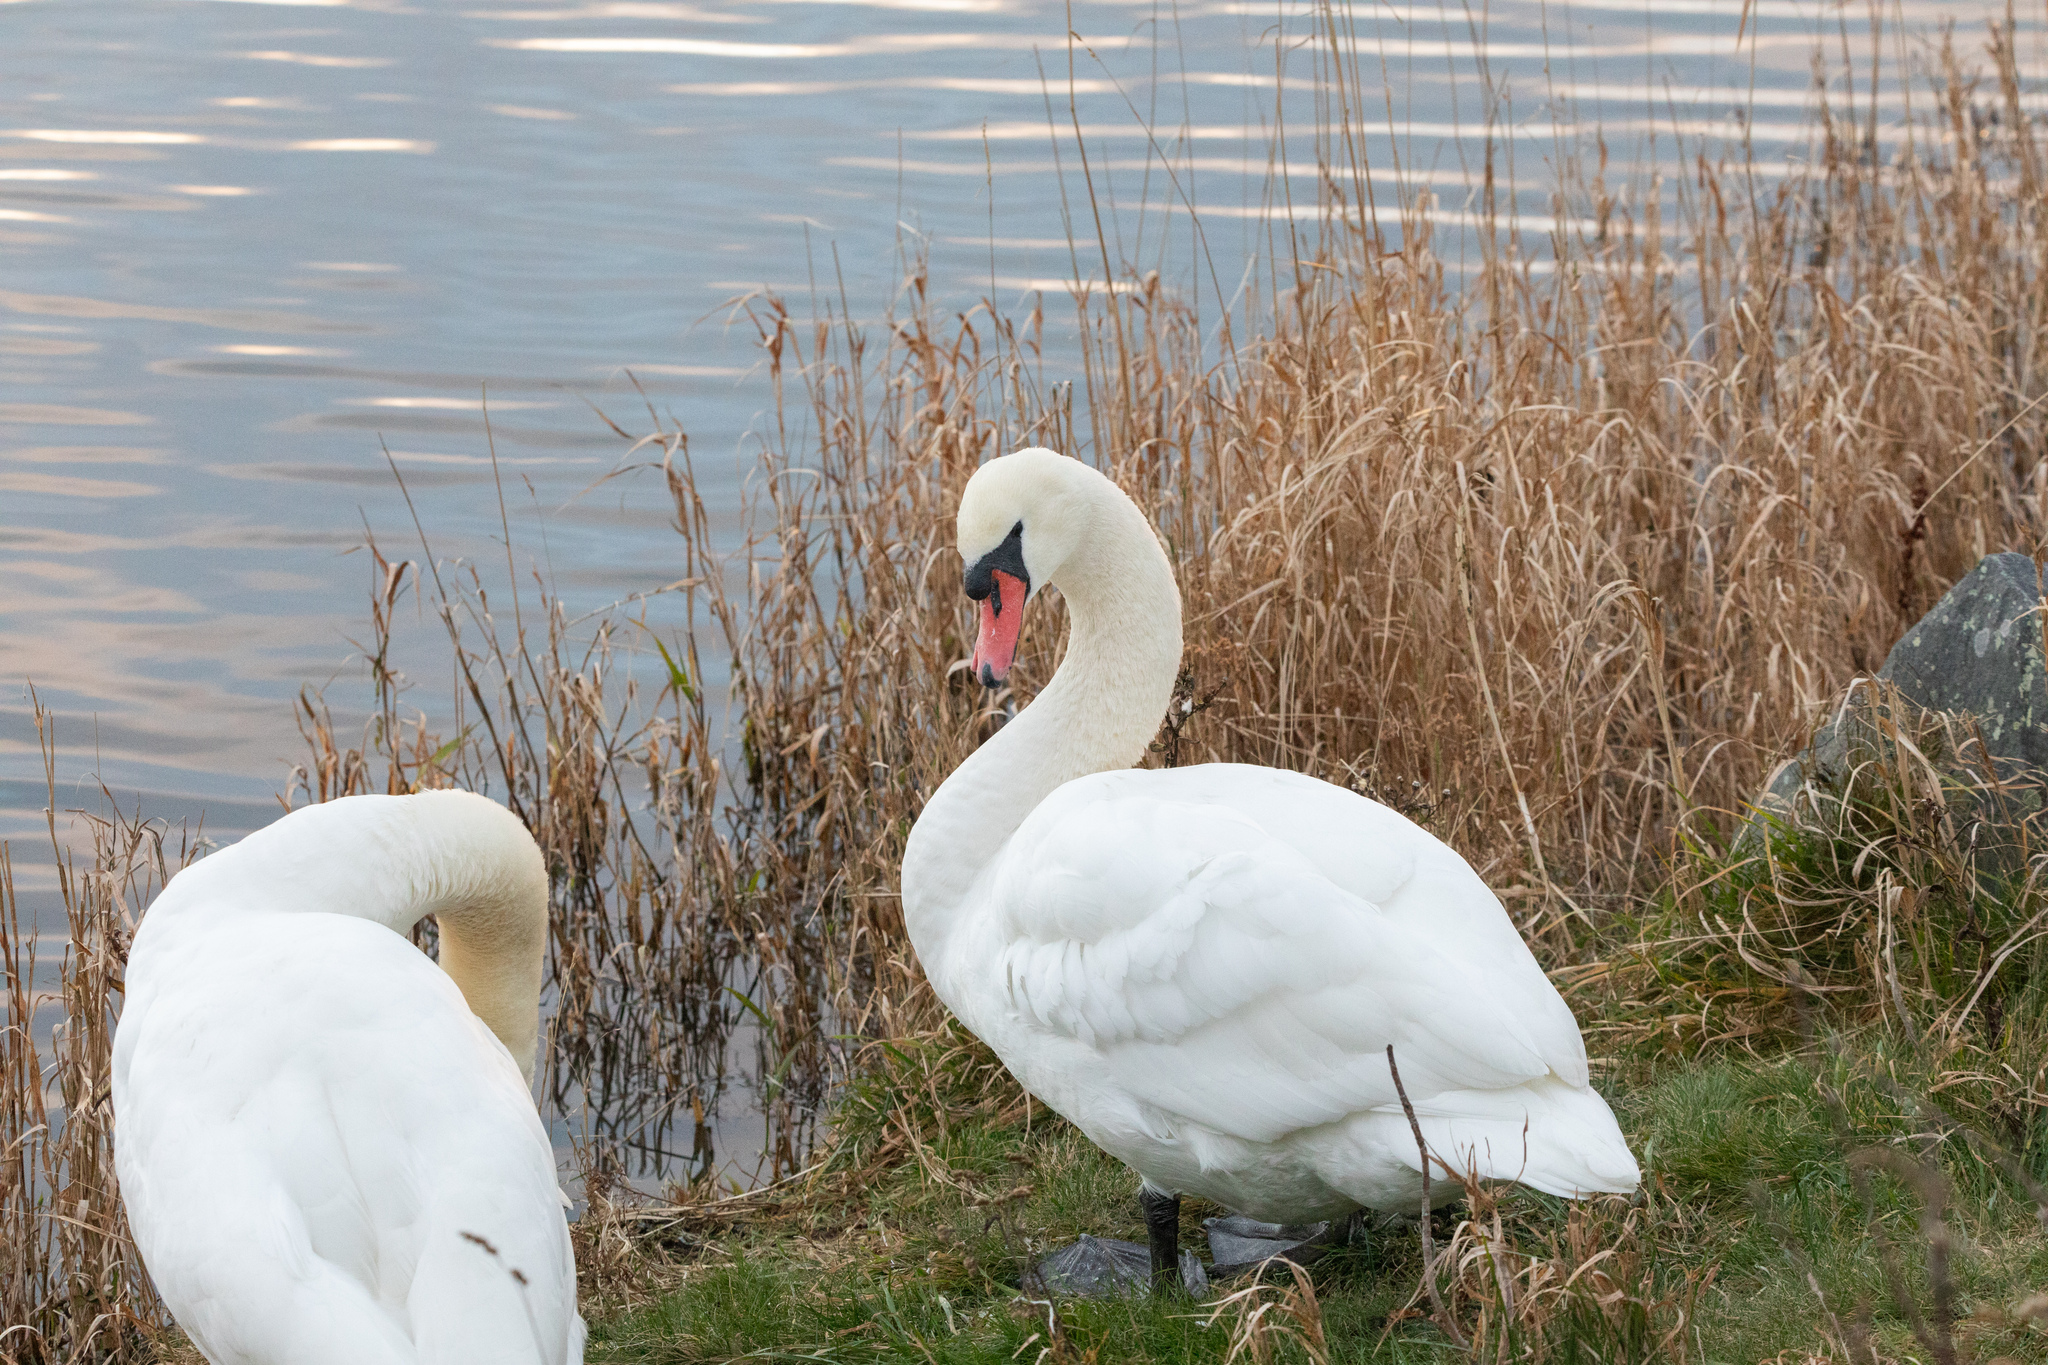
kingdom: Animalia
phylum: Chordata
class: Aves
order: Anseriformes
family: Anatidae
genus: Cygnus
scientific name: Cygnus olor
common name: Mute swan
